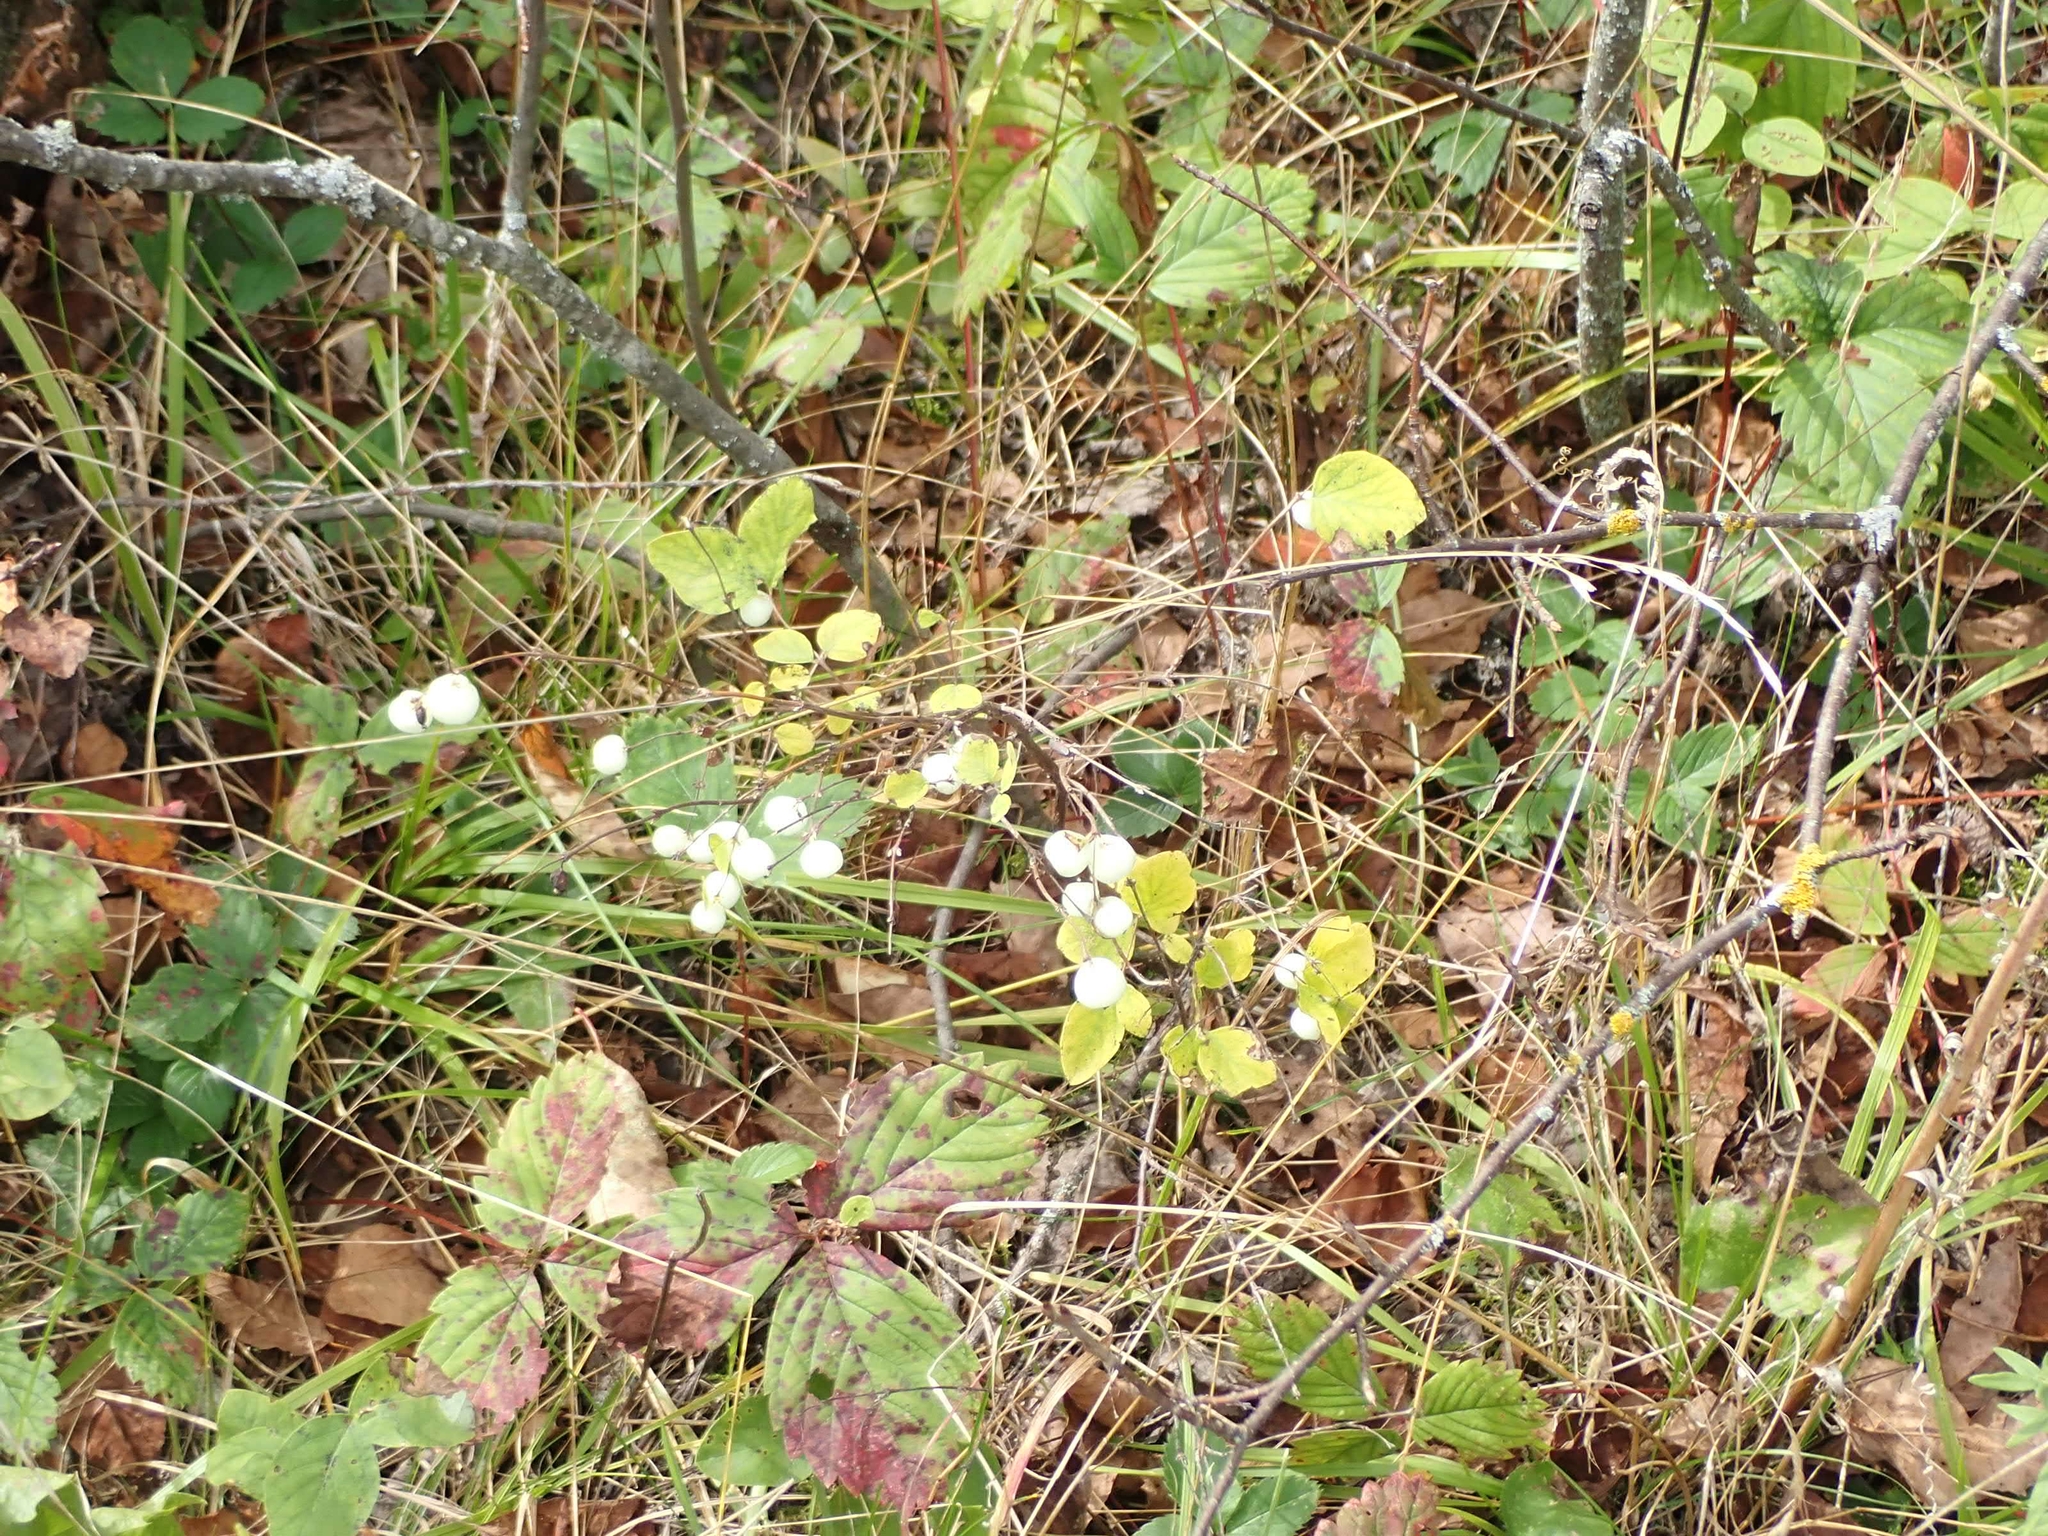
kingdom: Plantae
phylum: Tracheophyta
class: Magnoliopsida
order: Dipsacales
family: Caprifoliaceae
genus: Symphoricarpos
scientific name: Symphoricarpos albus
